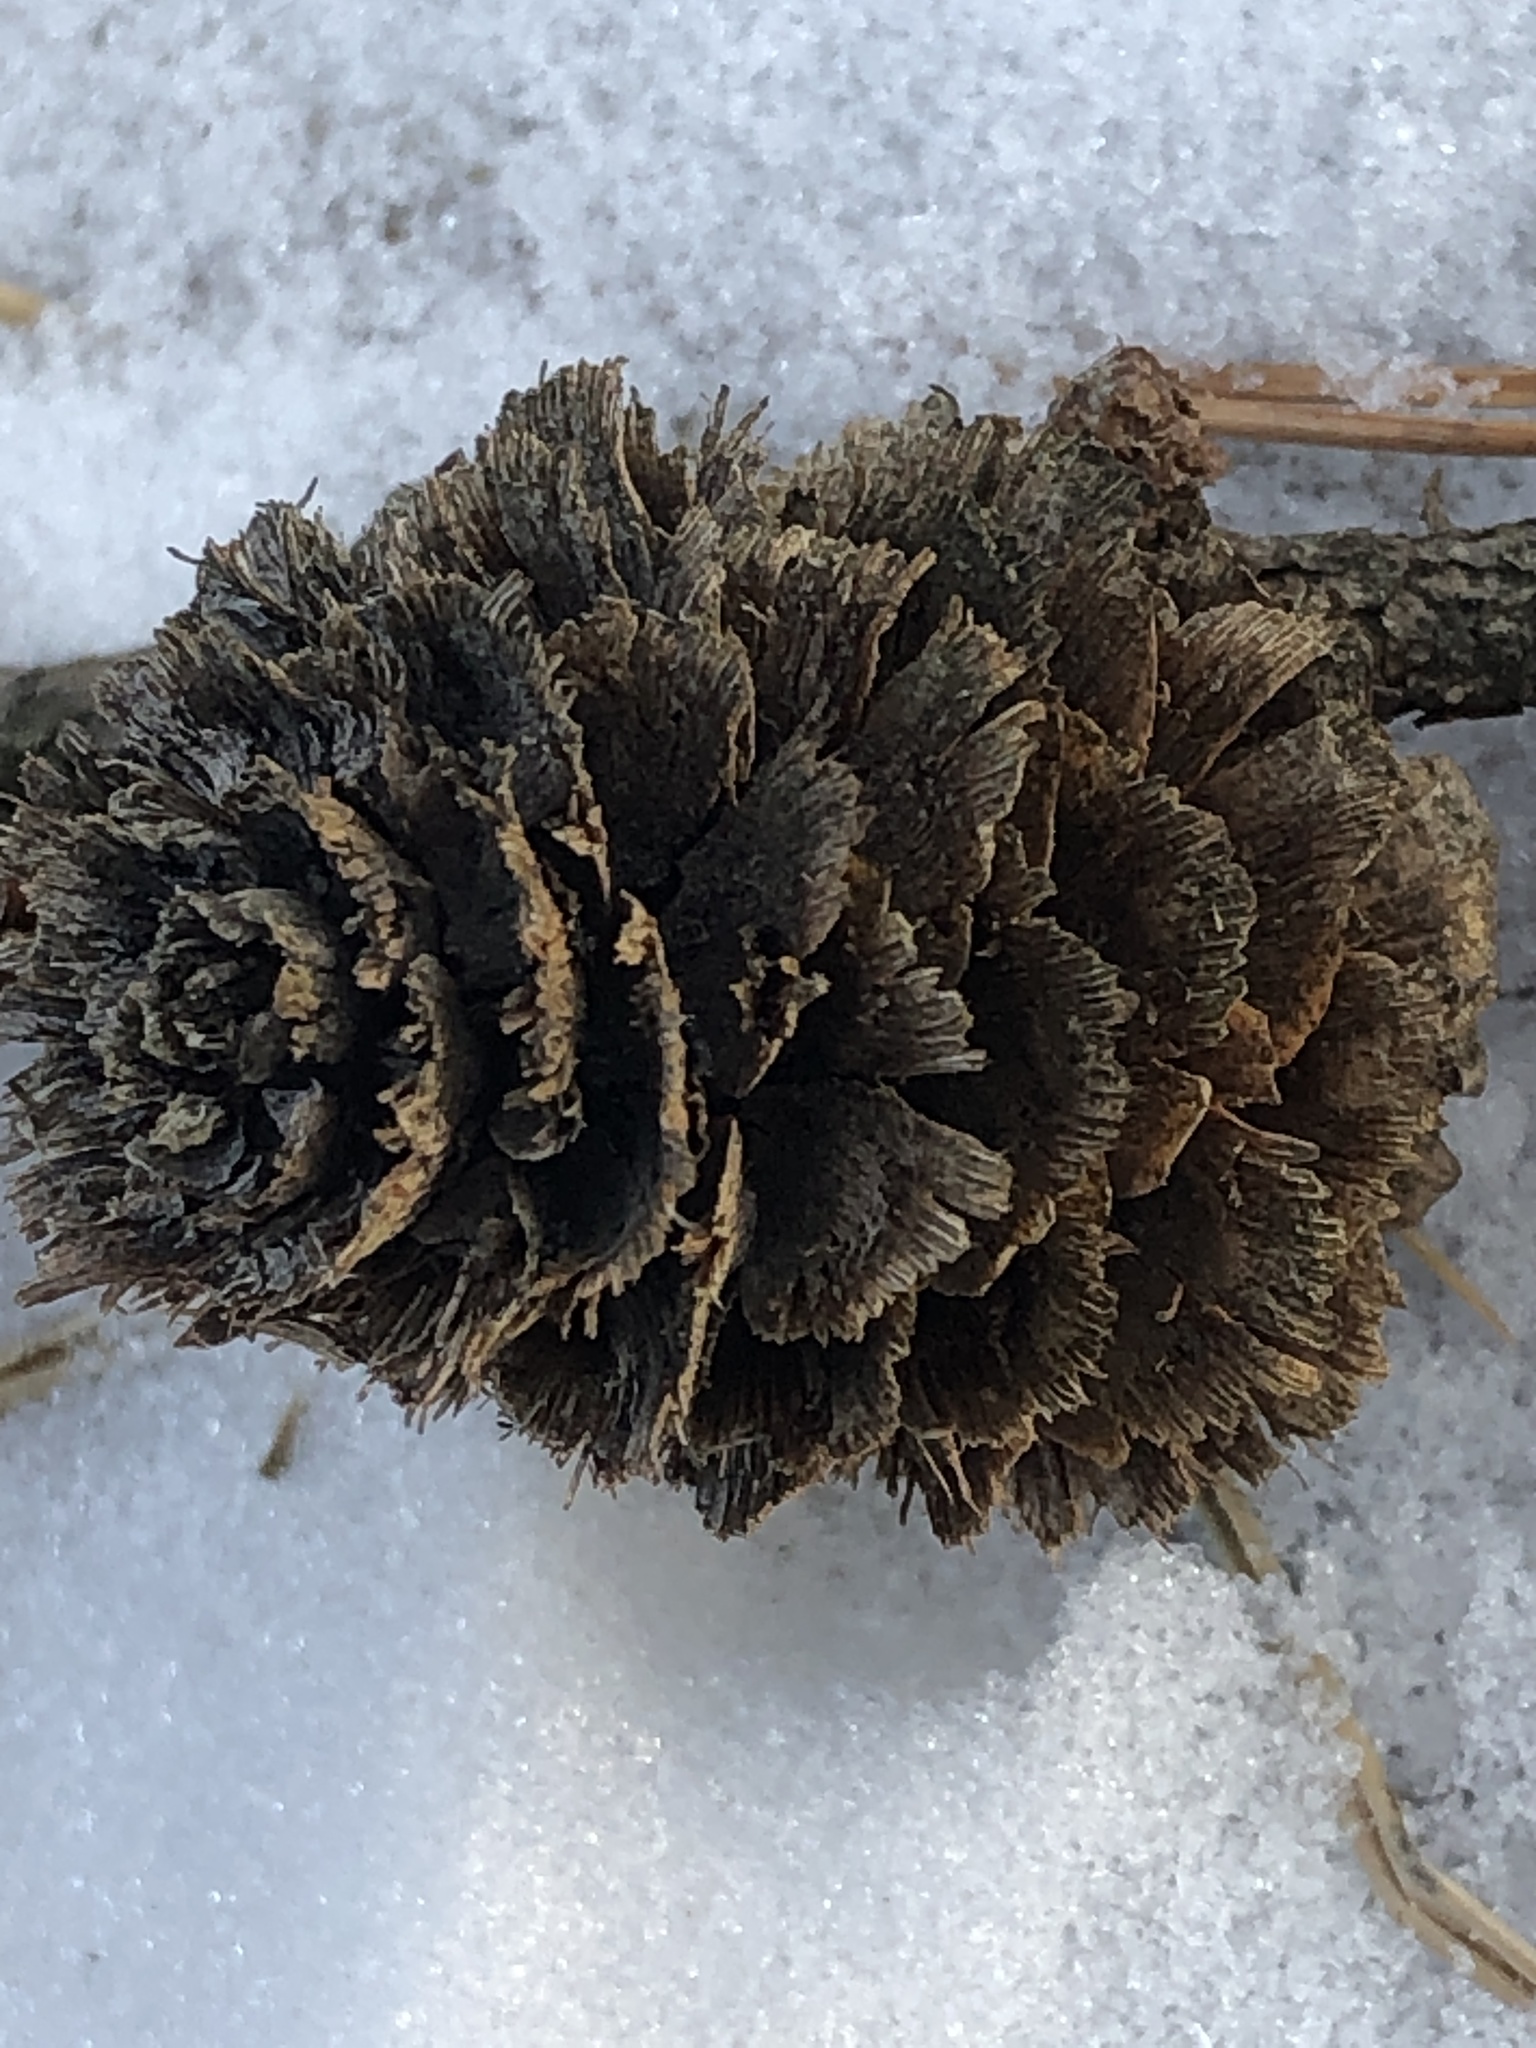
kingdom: Plantae
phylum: Tracheophyta
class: Pinopsida
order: Pinales
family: Pinaceae
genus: Larix
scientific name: Larix kaempferi
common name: Japanese larch
